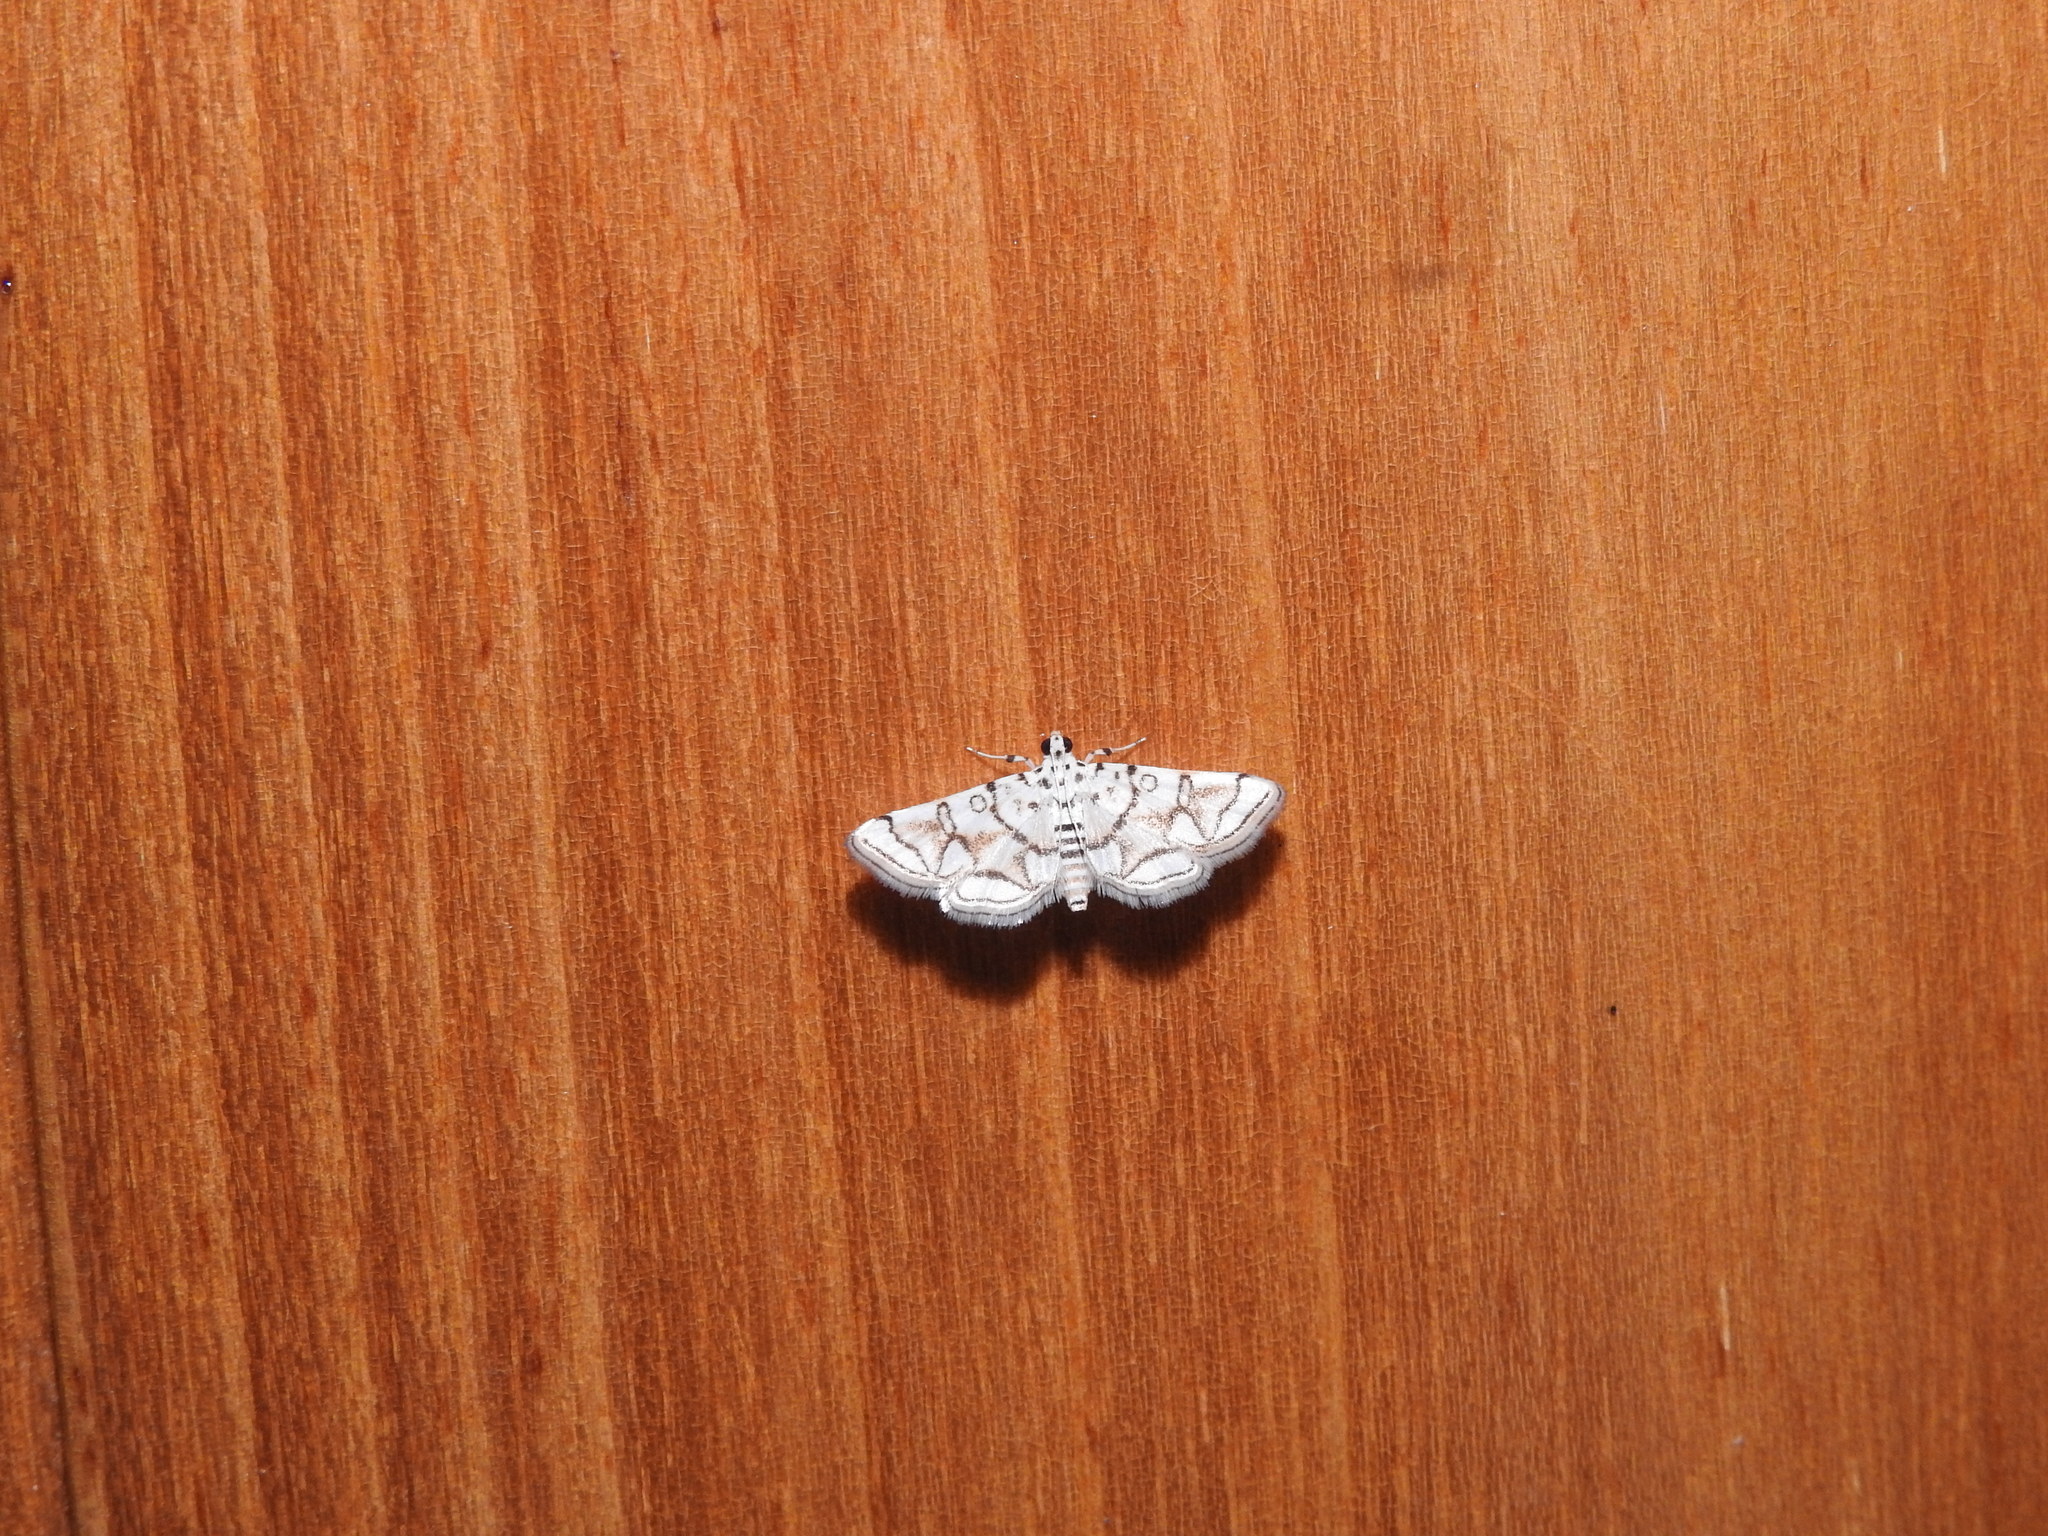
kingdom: Animalia
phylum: Arthropoda
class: Insecta
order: Lepidoptera
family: Crambidae
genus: Elophila
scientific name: Elophila
